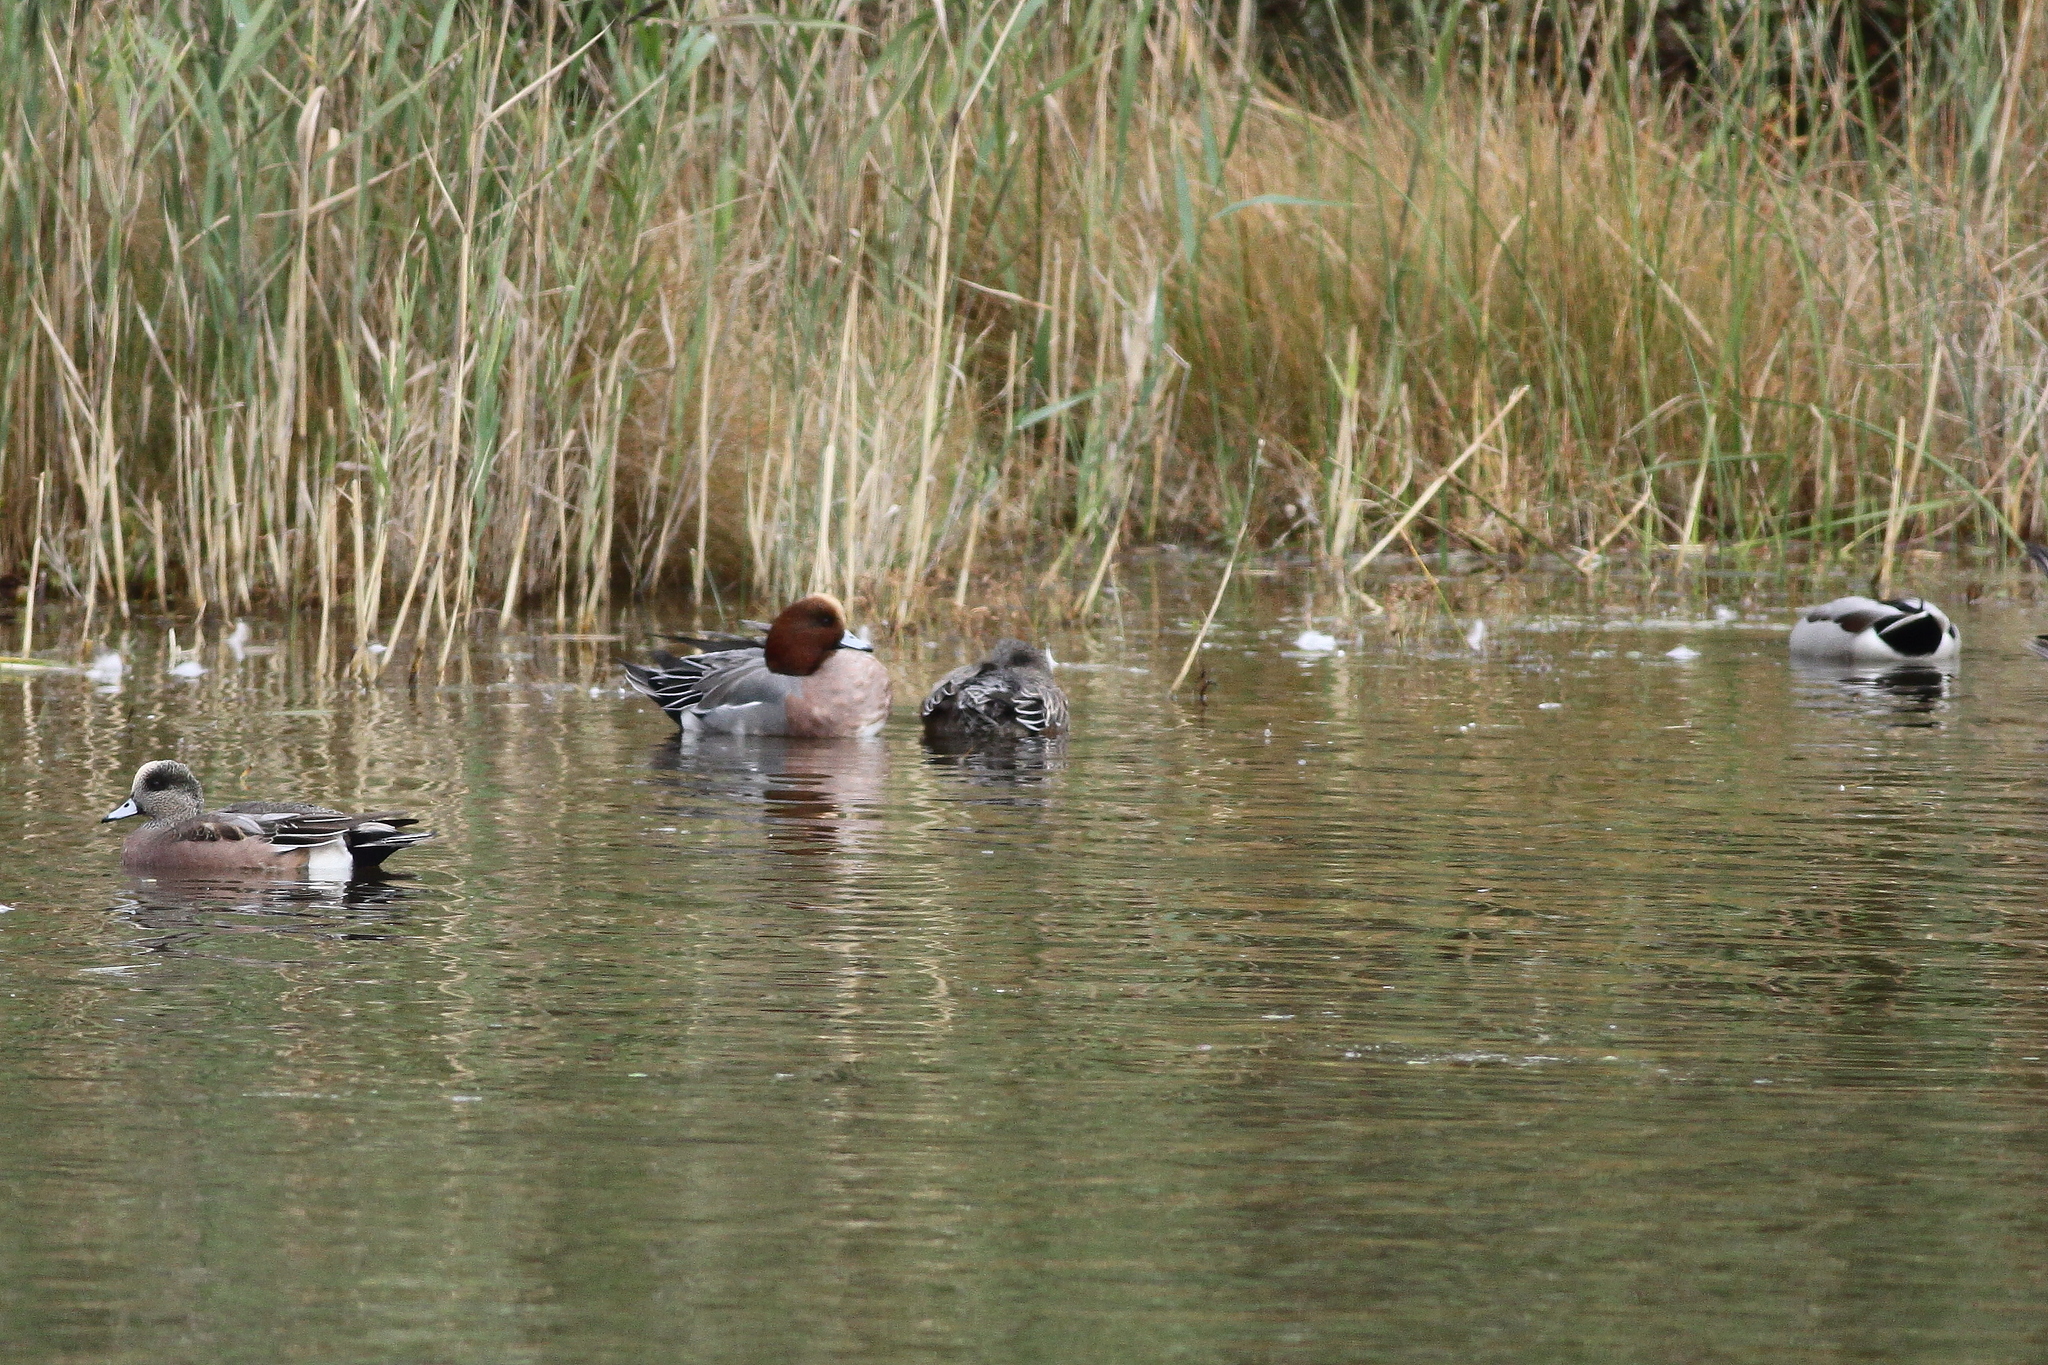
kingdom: Animalia
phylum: Chordata
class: Aves
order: Anseriformes
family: Anatidae
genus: Mareca
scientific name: Mareca penelope
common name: Eurasian wigeon
